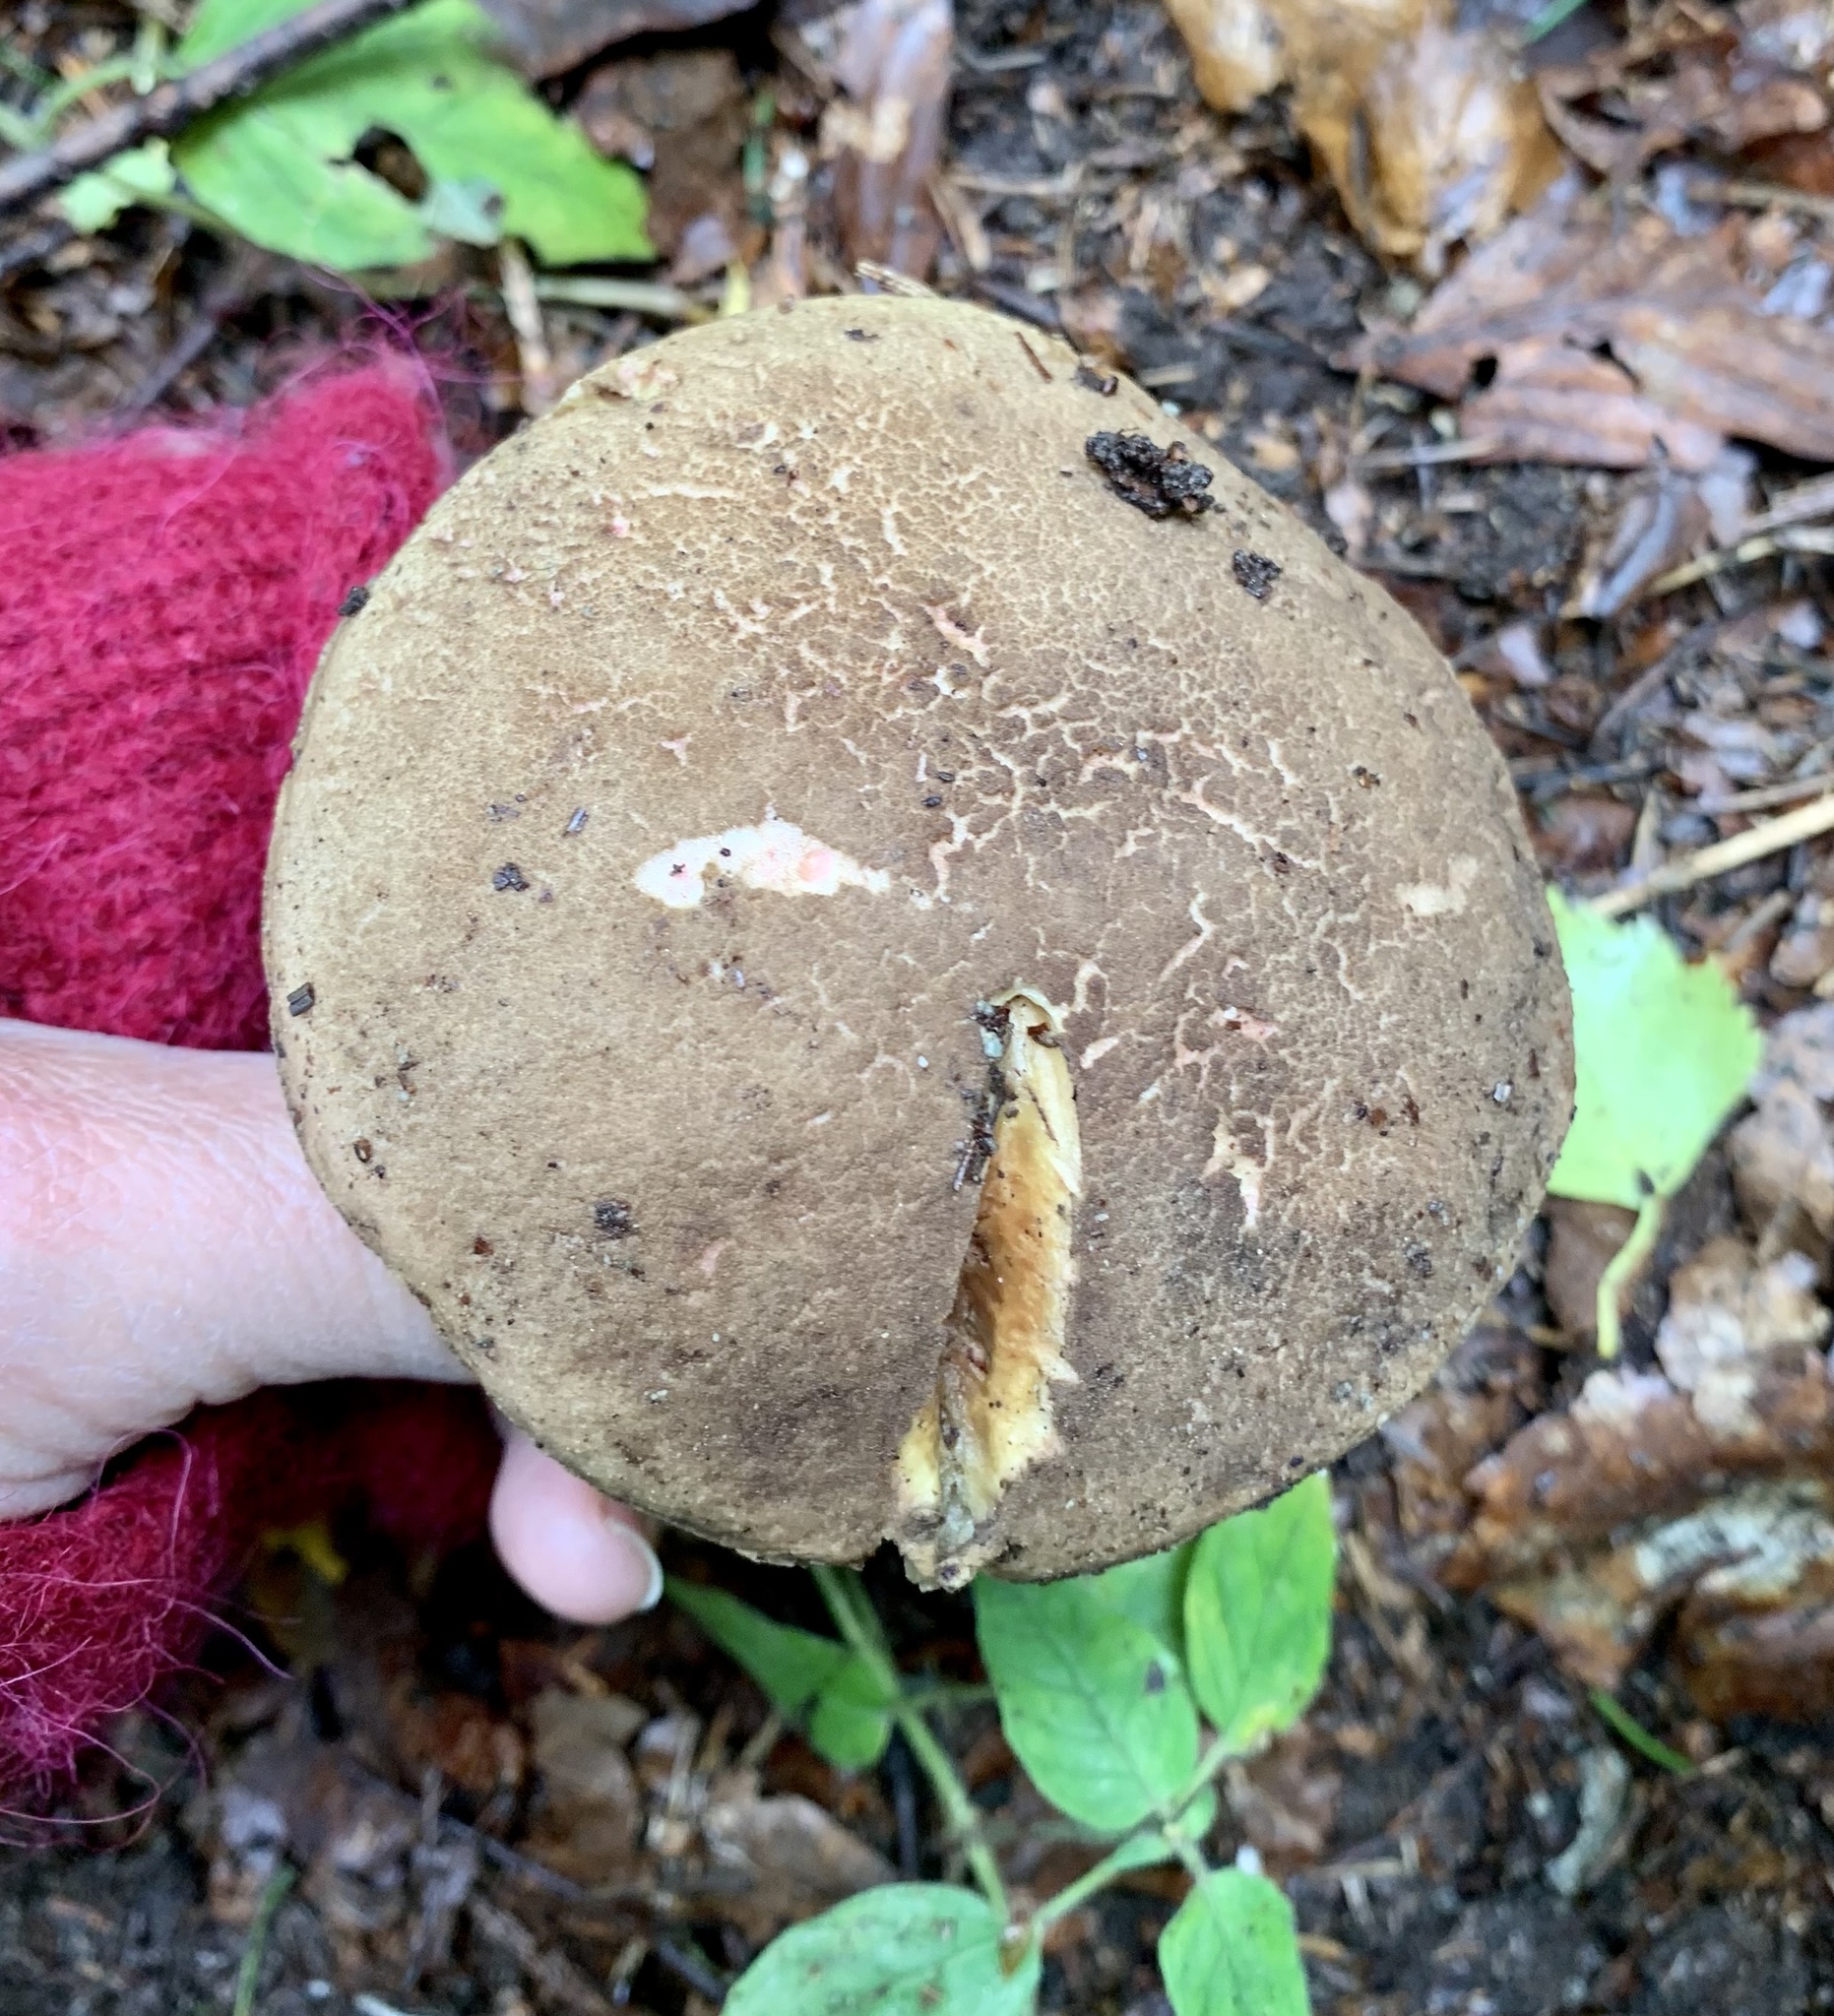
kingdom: Fungi
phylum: Basidiomycota
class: Agaricomycetes
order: Boletales
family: Boletaceae
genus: Xerocomellus
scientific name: Xerocomellus chrysenteron
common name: Red-cracking bolete
